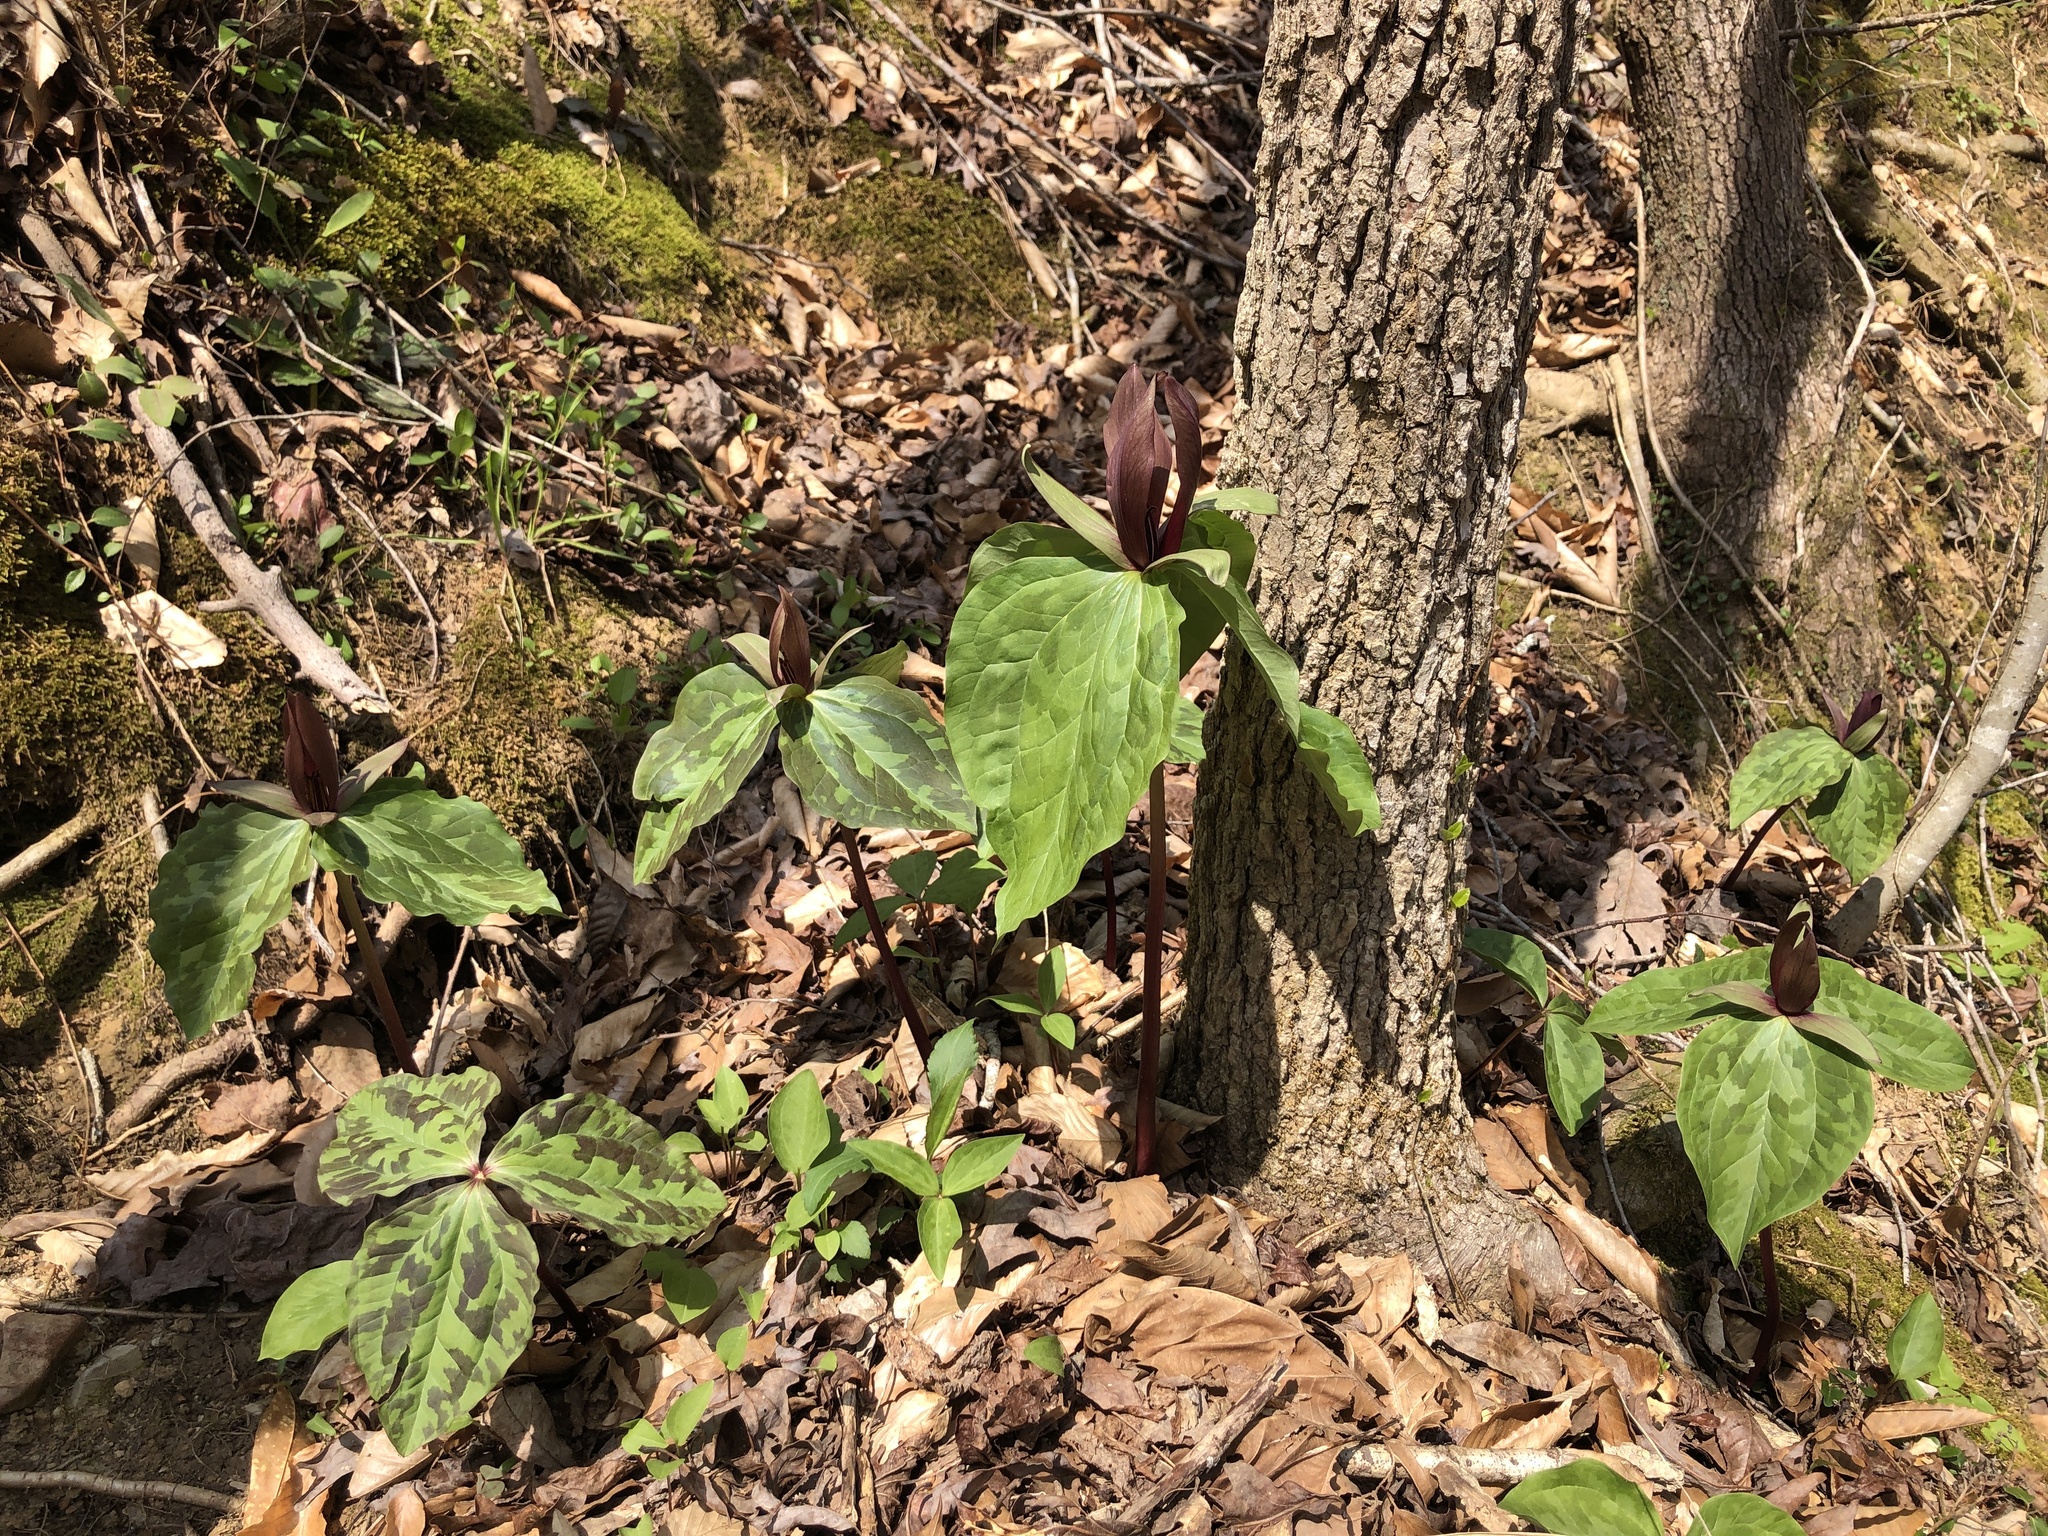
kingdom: Plantae
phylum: Tracheophyta
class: Liliopsida
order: Liliales
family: Melanthiaceae
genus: Trillium
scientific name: Trillium cuneatum
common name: Cuneate trillium
